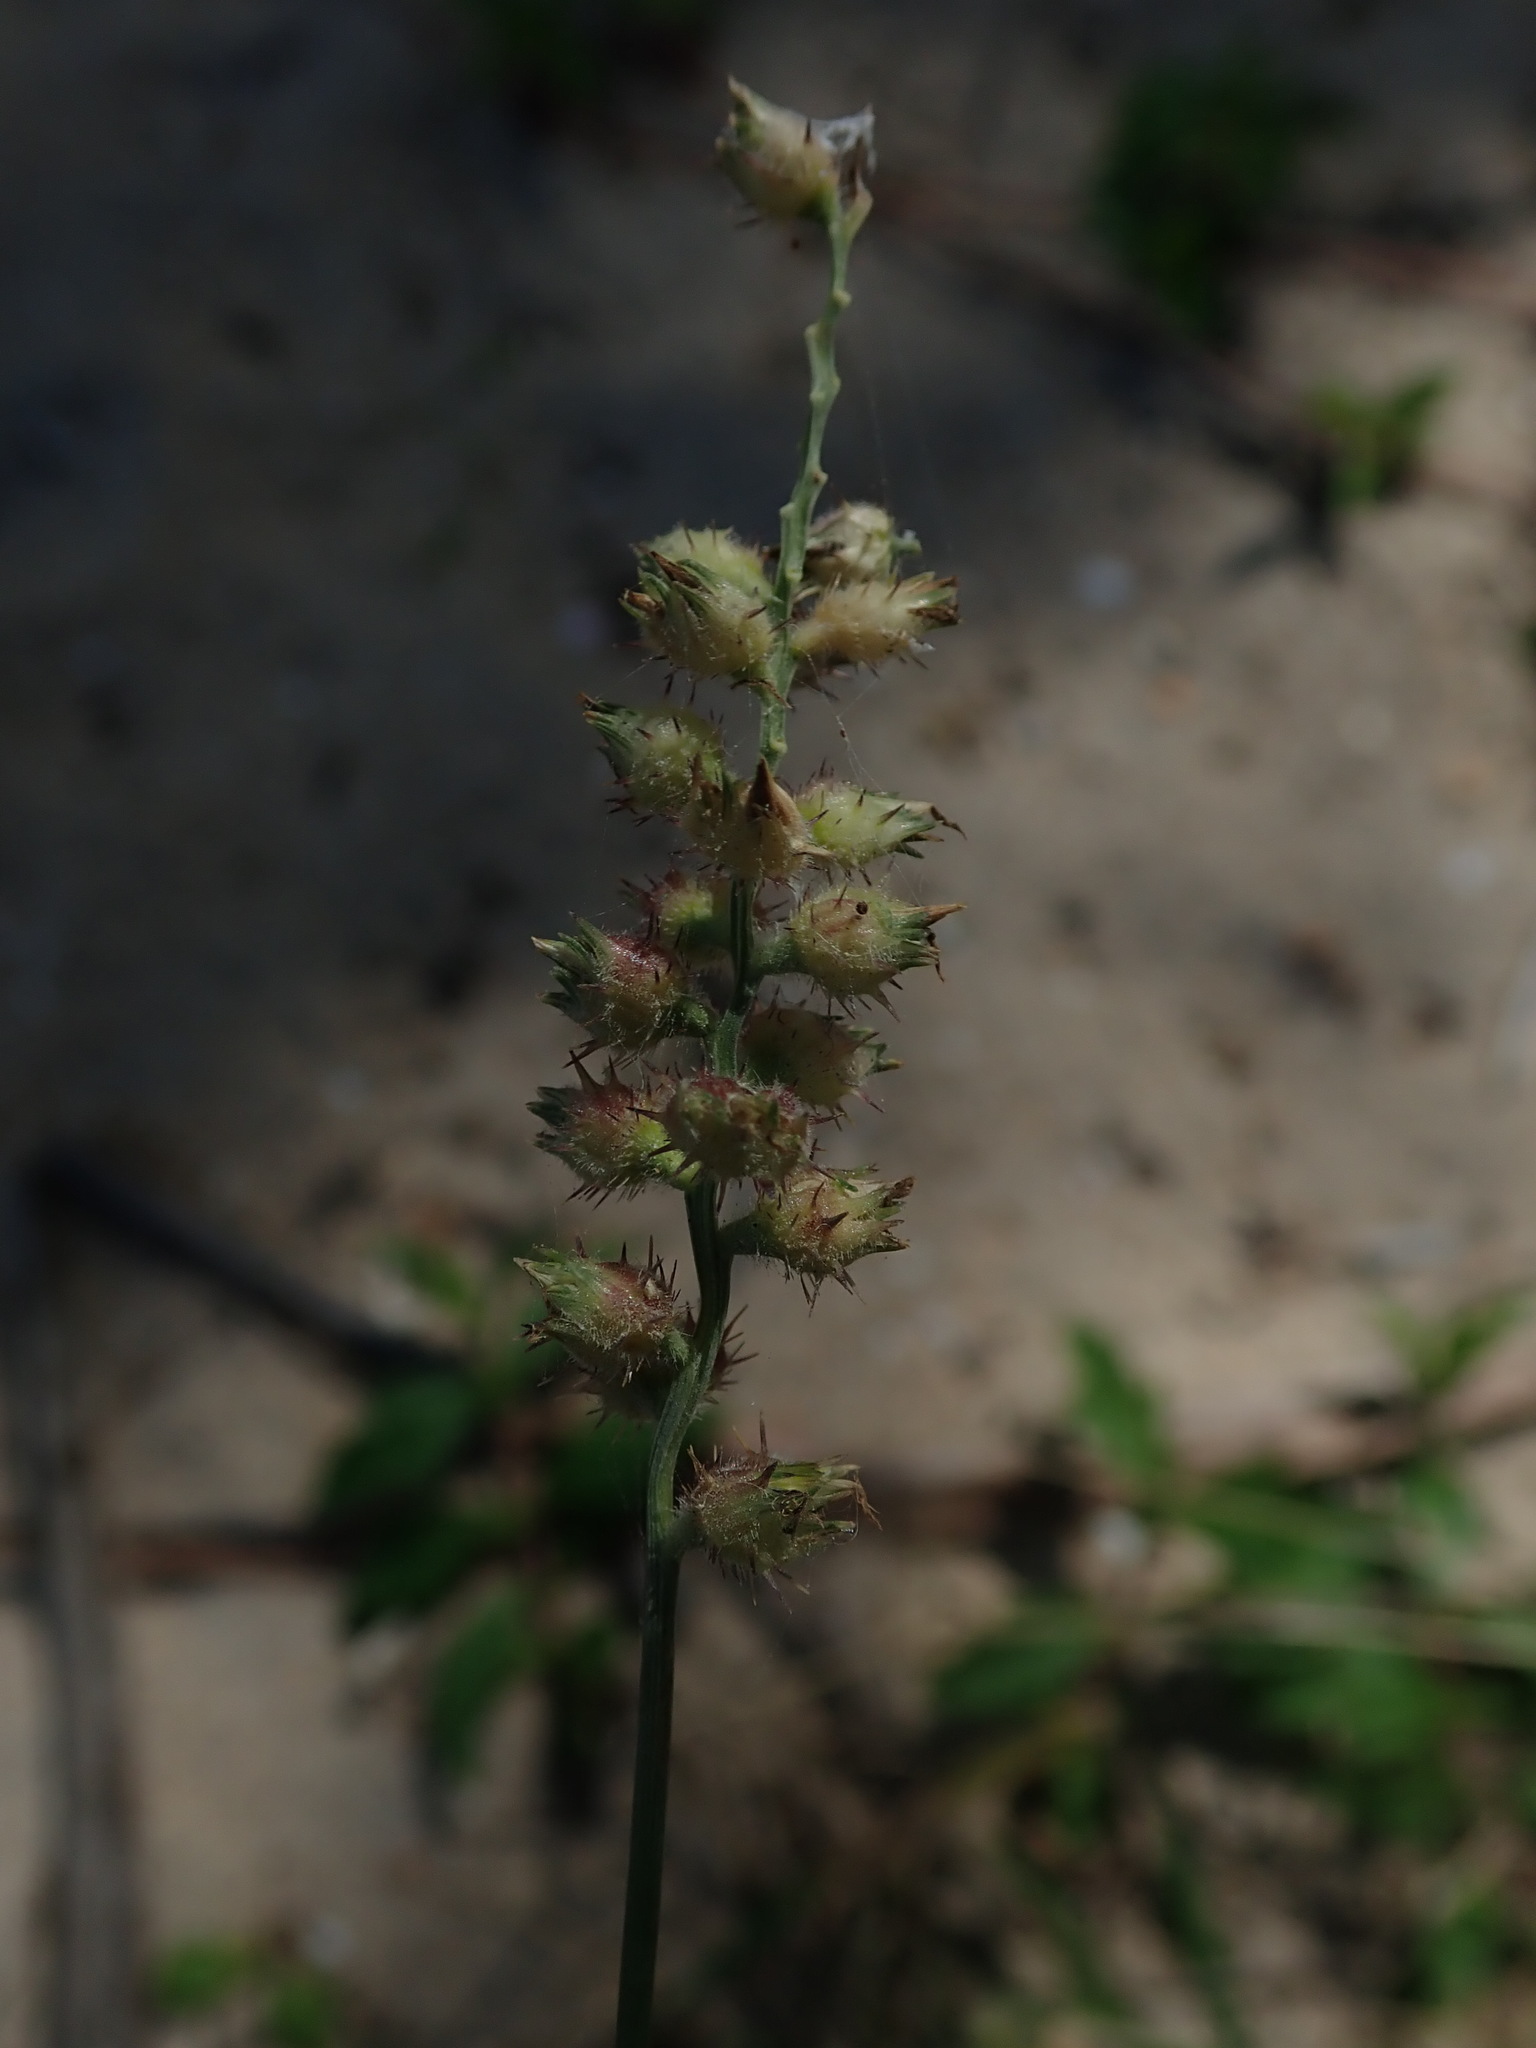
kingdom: Plantae
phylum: Tracheophyta
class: Liliopsida
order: Poales
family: Poaceae
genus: Cenchrus
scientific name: Cenchrus echinatus
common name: Southern sandbur
